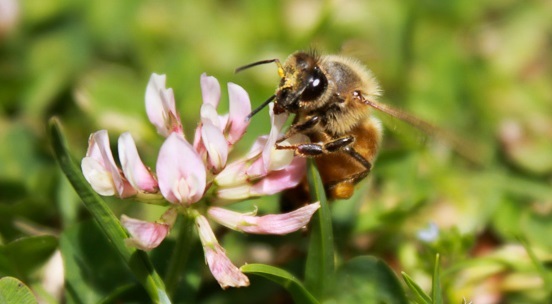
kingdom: Animalia
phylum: Arthropoda
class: Insecta
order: Hymenoptera
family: Apidae
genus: Apis
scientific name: Apis mellifera
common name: Honey bee
